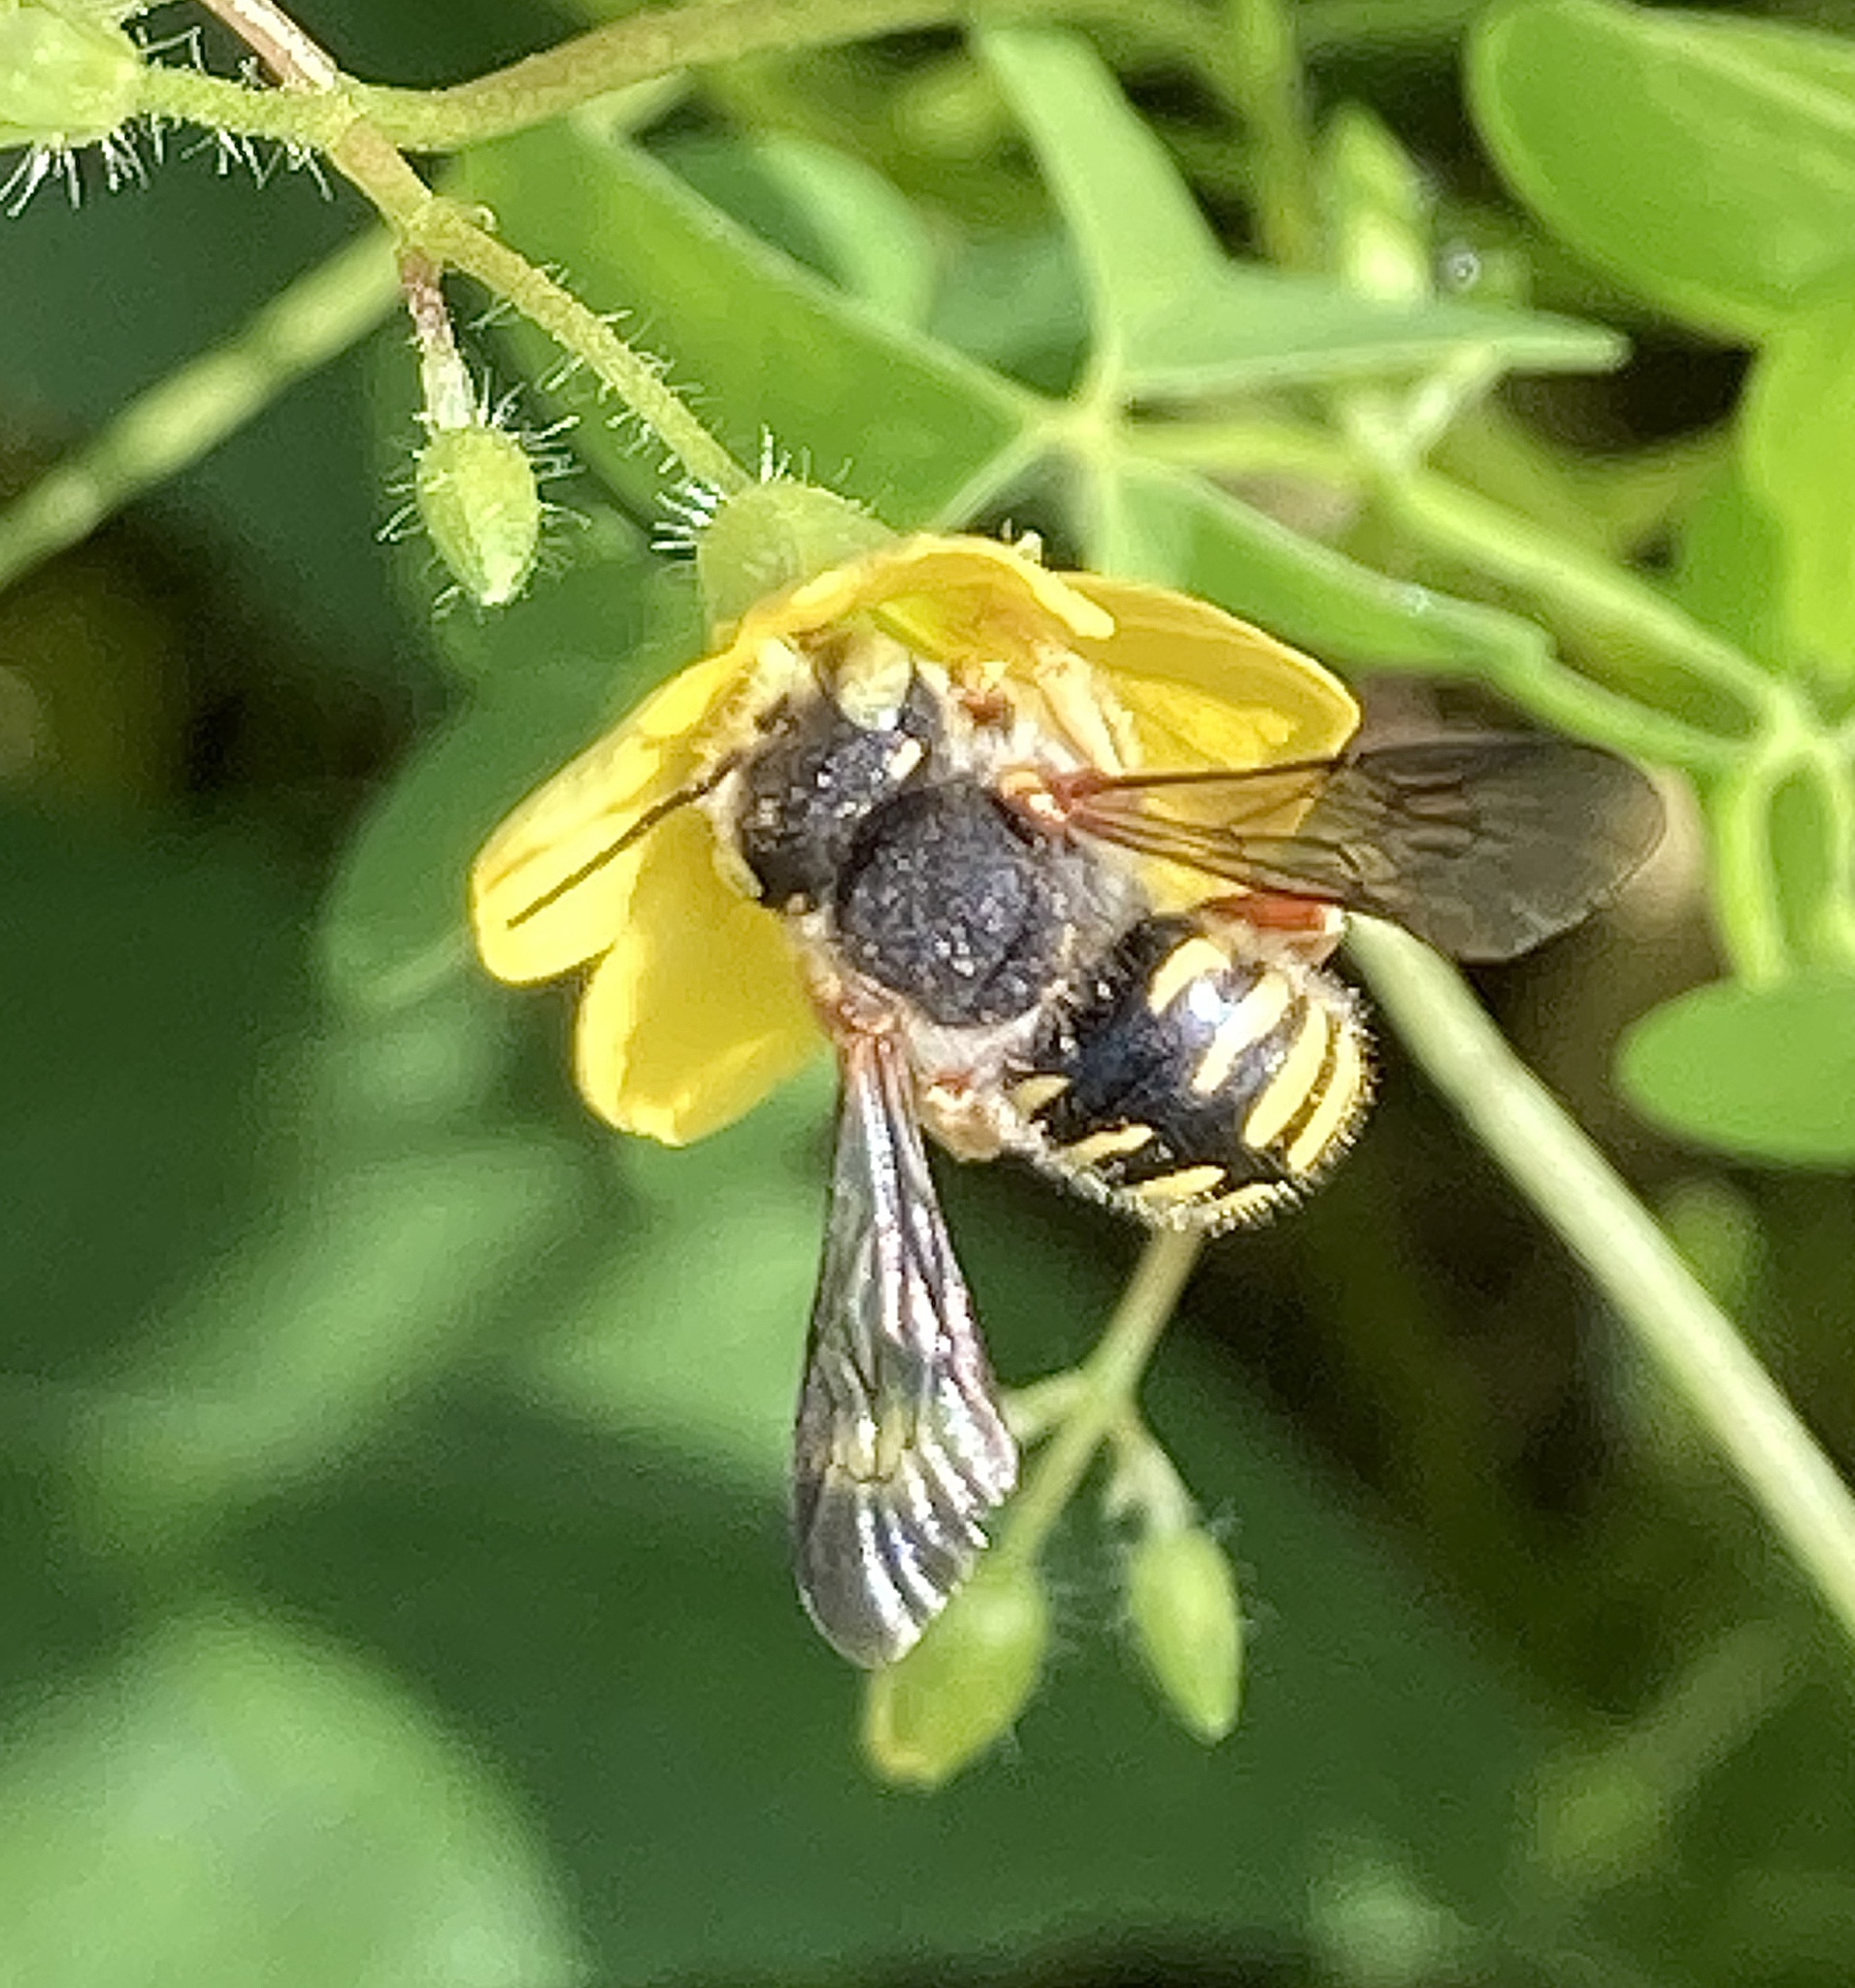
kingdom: Animalia
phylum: Arthropoda
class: Insecta
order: Hymenoptera
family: Megachilidae
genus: Anthidium
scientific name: Anthidium oblongatum
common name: Oblong wool carder bee
